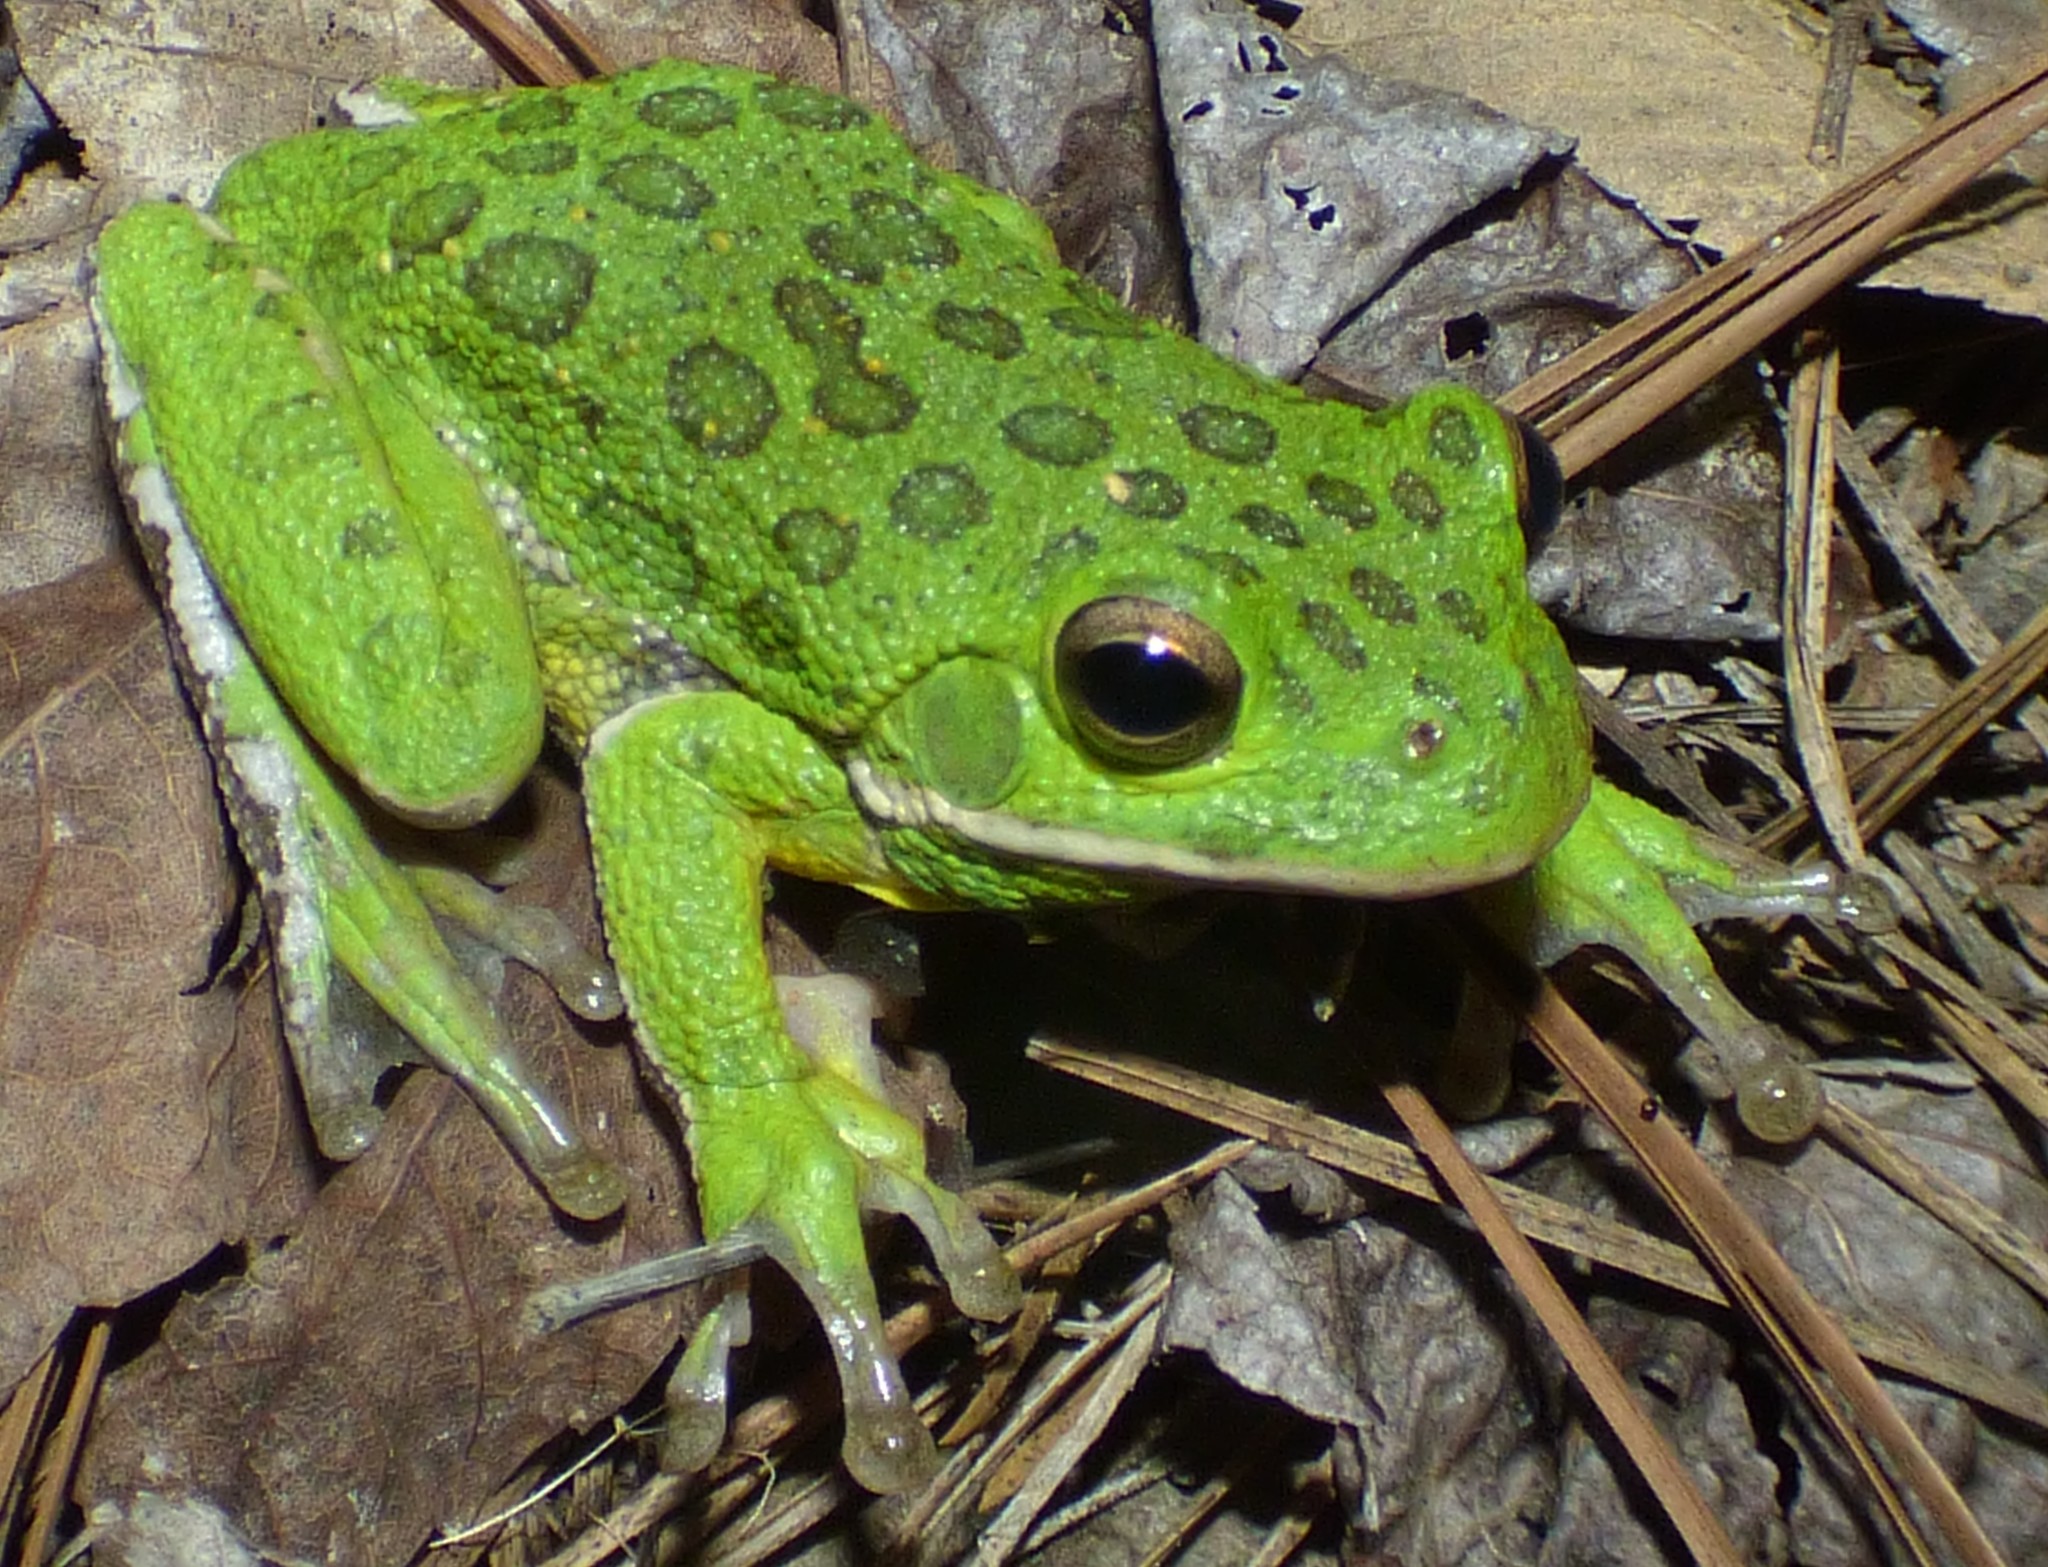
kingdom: Animalia
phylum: Chordata
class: Amphibia
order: Anura
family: Hylidae
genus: Dryophytes
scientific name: Dryophytes gratiosus
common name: Barking treefrog
